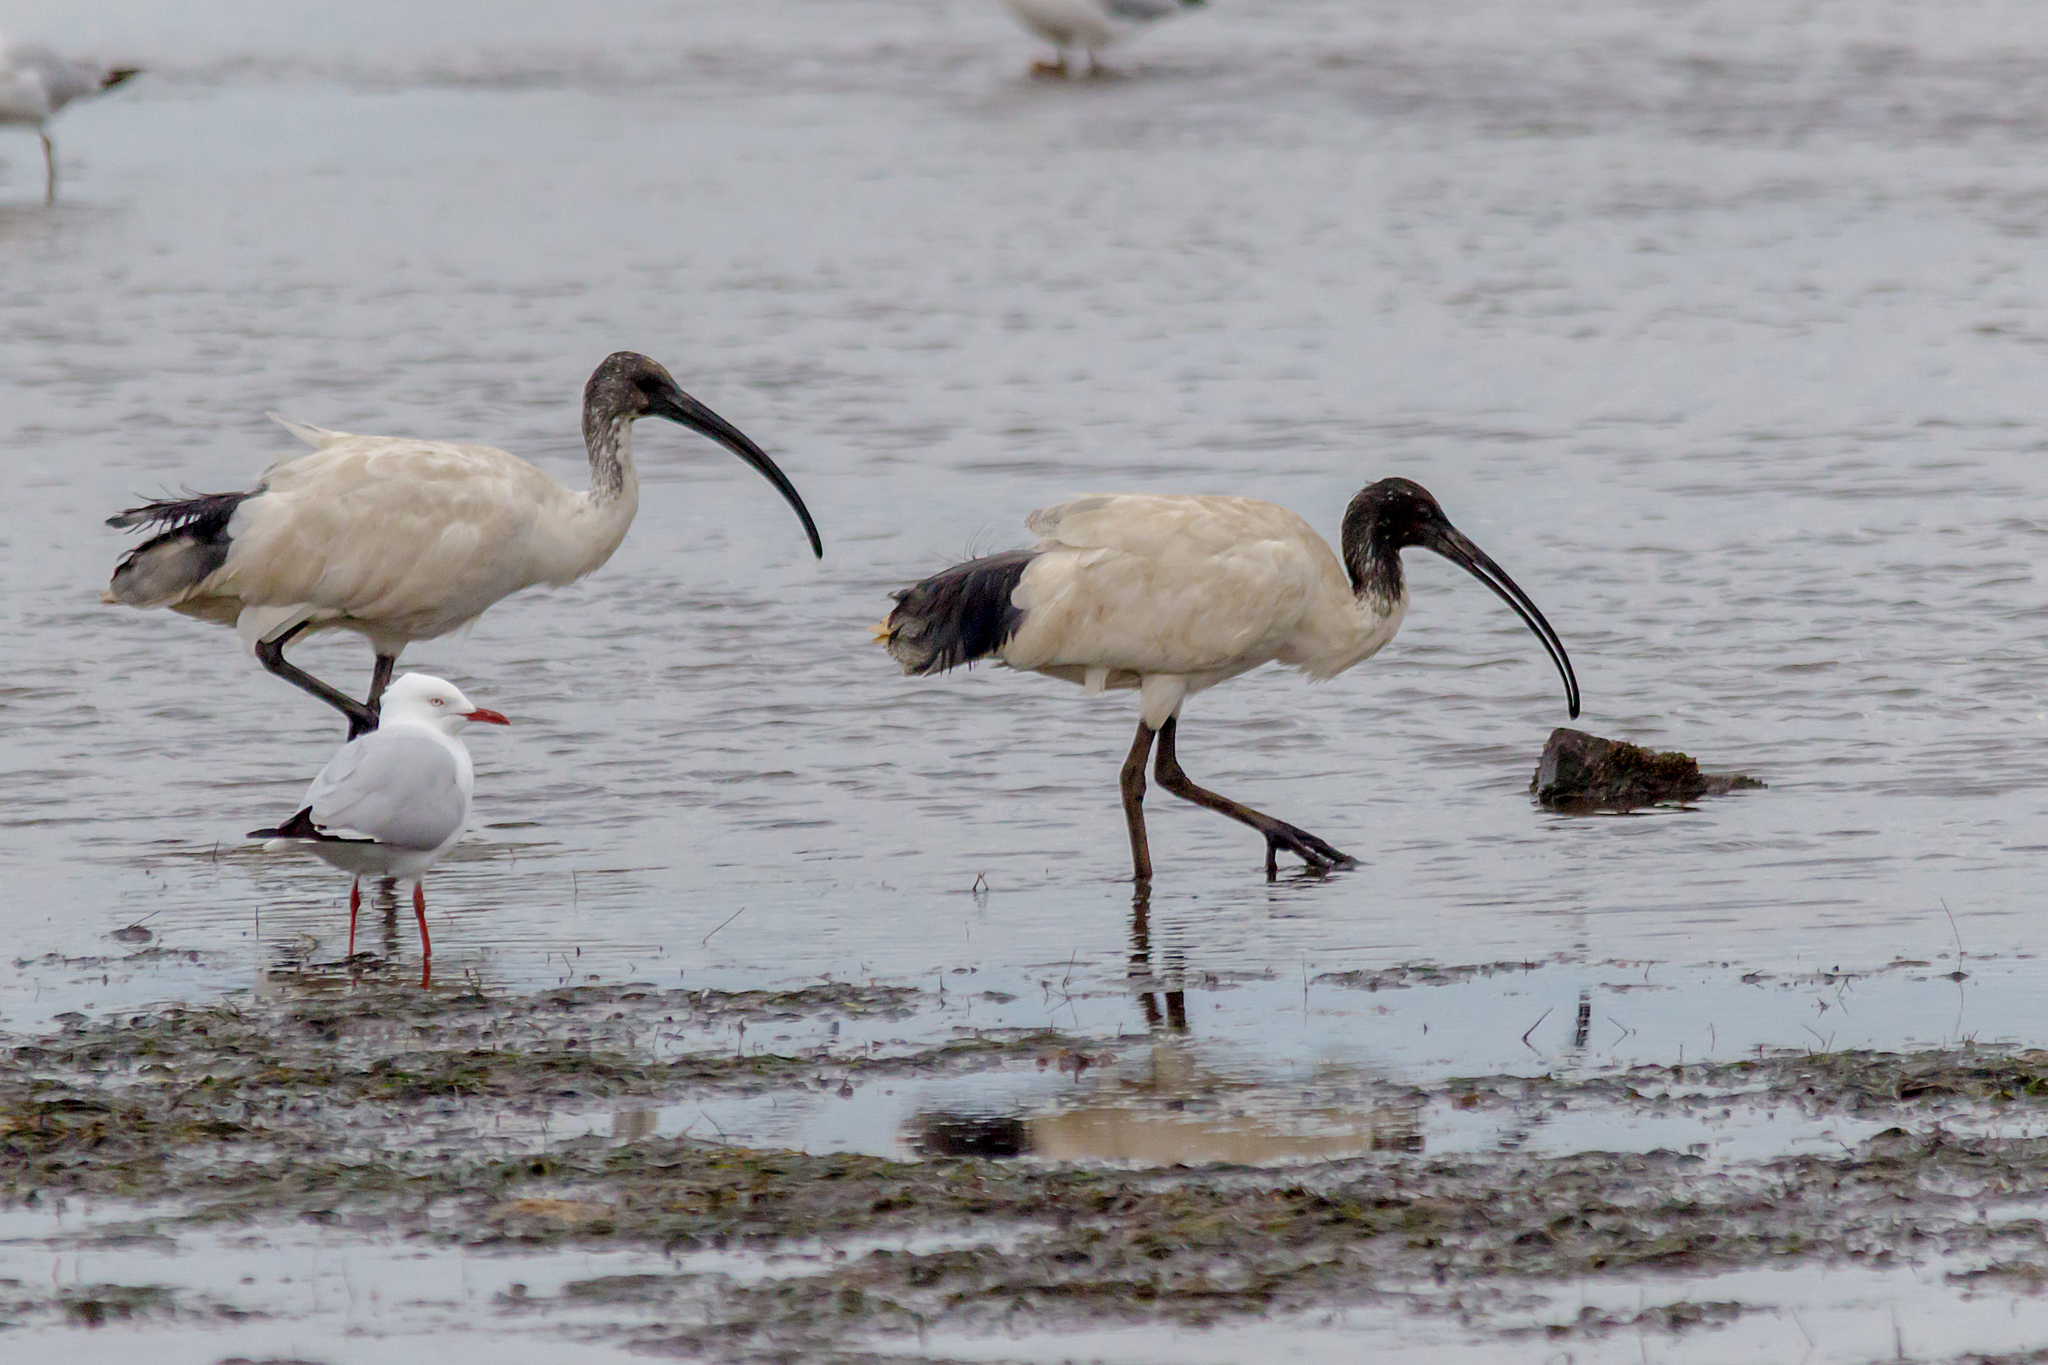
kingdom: Animalia
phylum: Chordata
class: Aves
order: Pelecaniformes
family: Threskiornithidae
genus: Threskiornis
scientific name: Threskiornis molucca
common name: Australian white ibis
